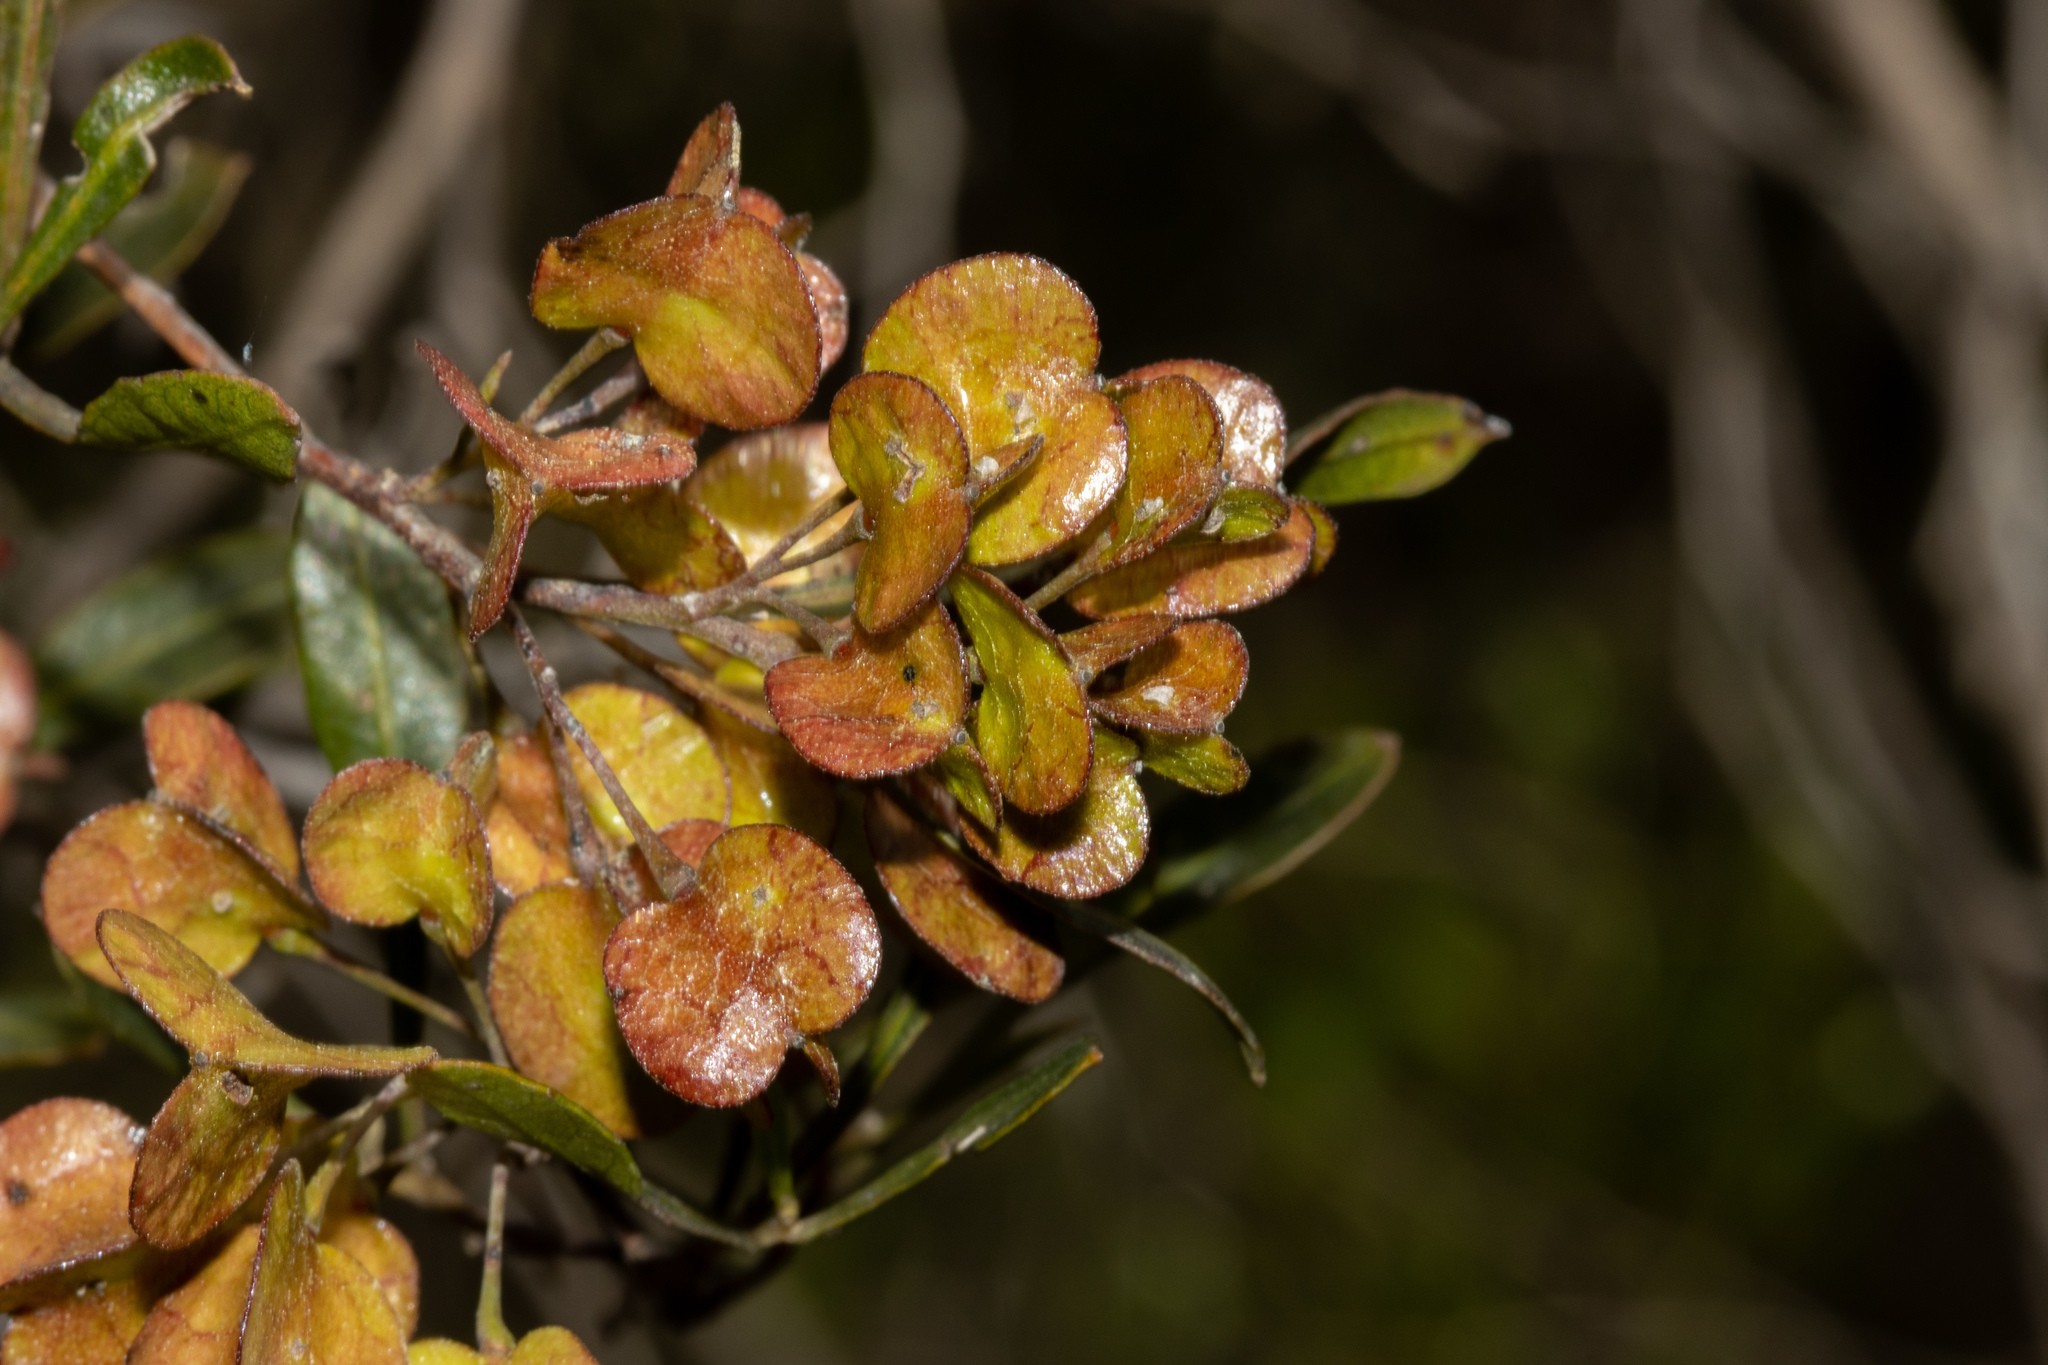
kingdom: Plantae
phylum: Tracheophyta
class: Magnoliopsida
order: Sapindales
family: Sapindaceae
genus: Dodonaea
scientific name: Dodonaea viscosa
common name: Hopbush
